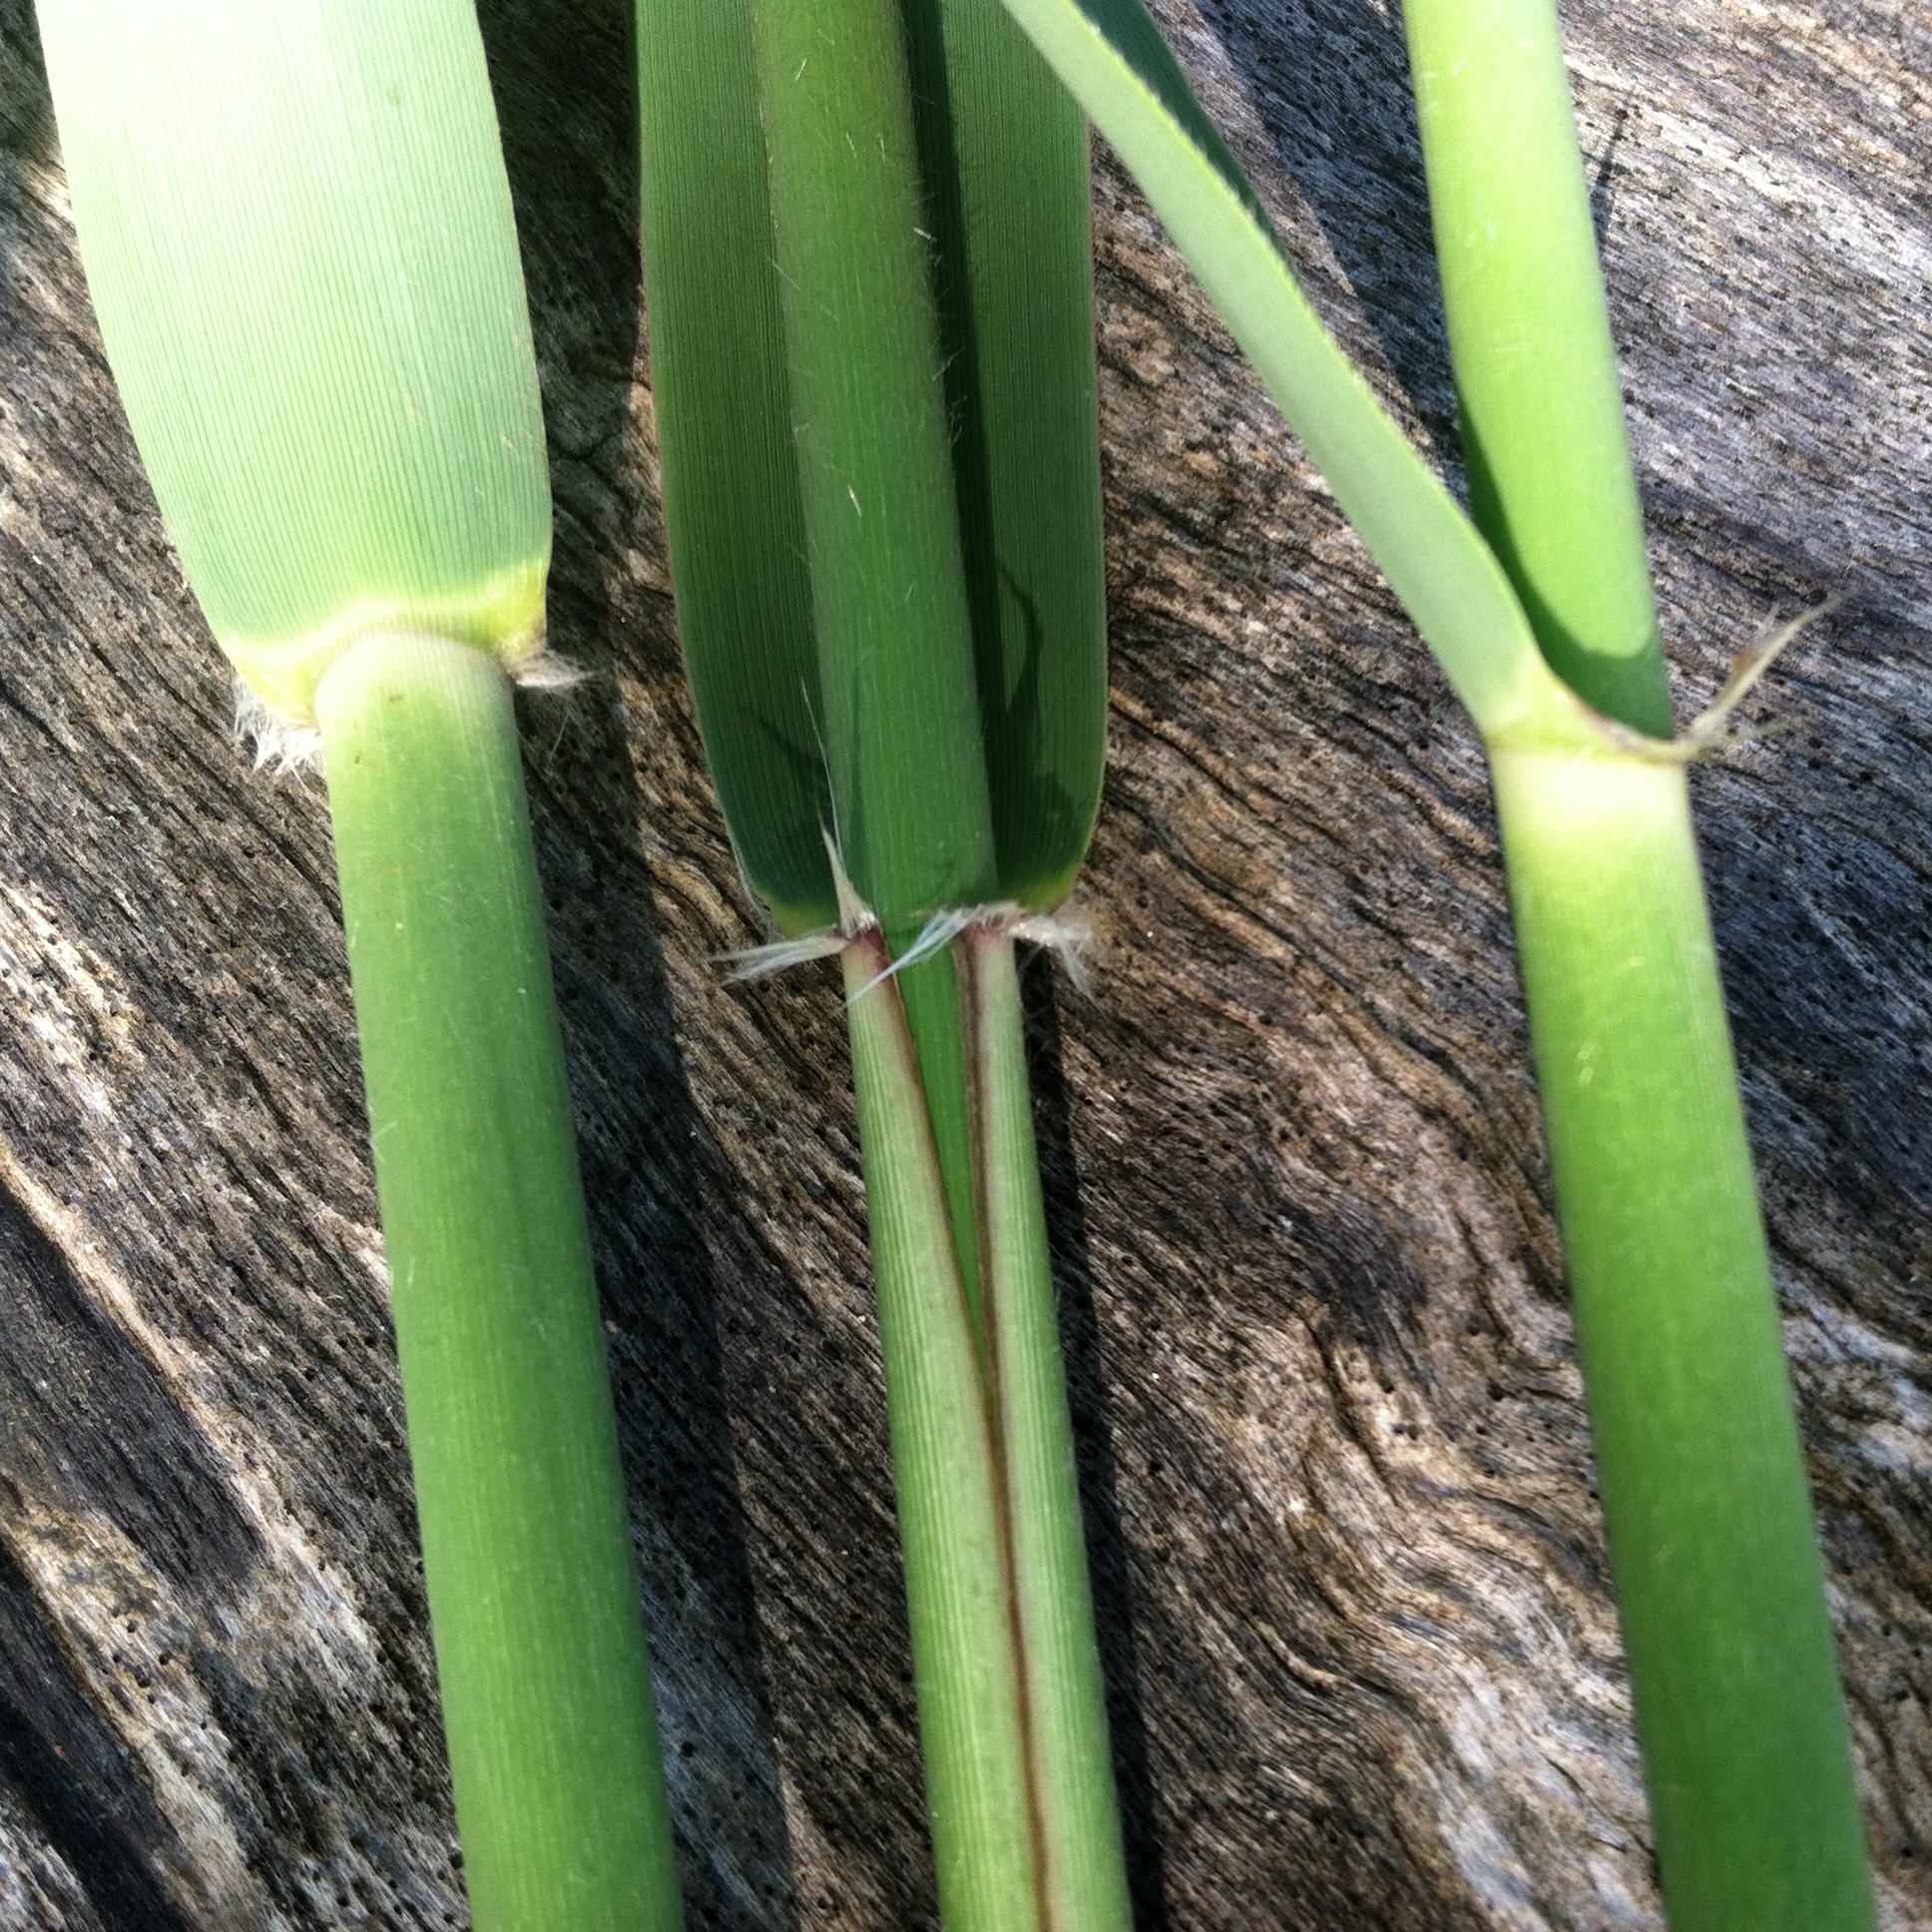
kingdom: Plantae
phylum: Tracheophyta
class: Liliopsida
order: Poales
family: Poaceae
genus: Phragmites
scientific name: Phragmites australis
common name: Common reed
